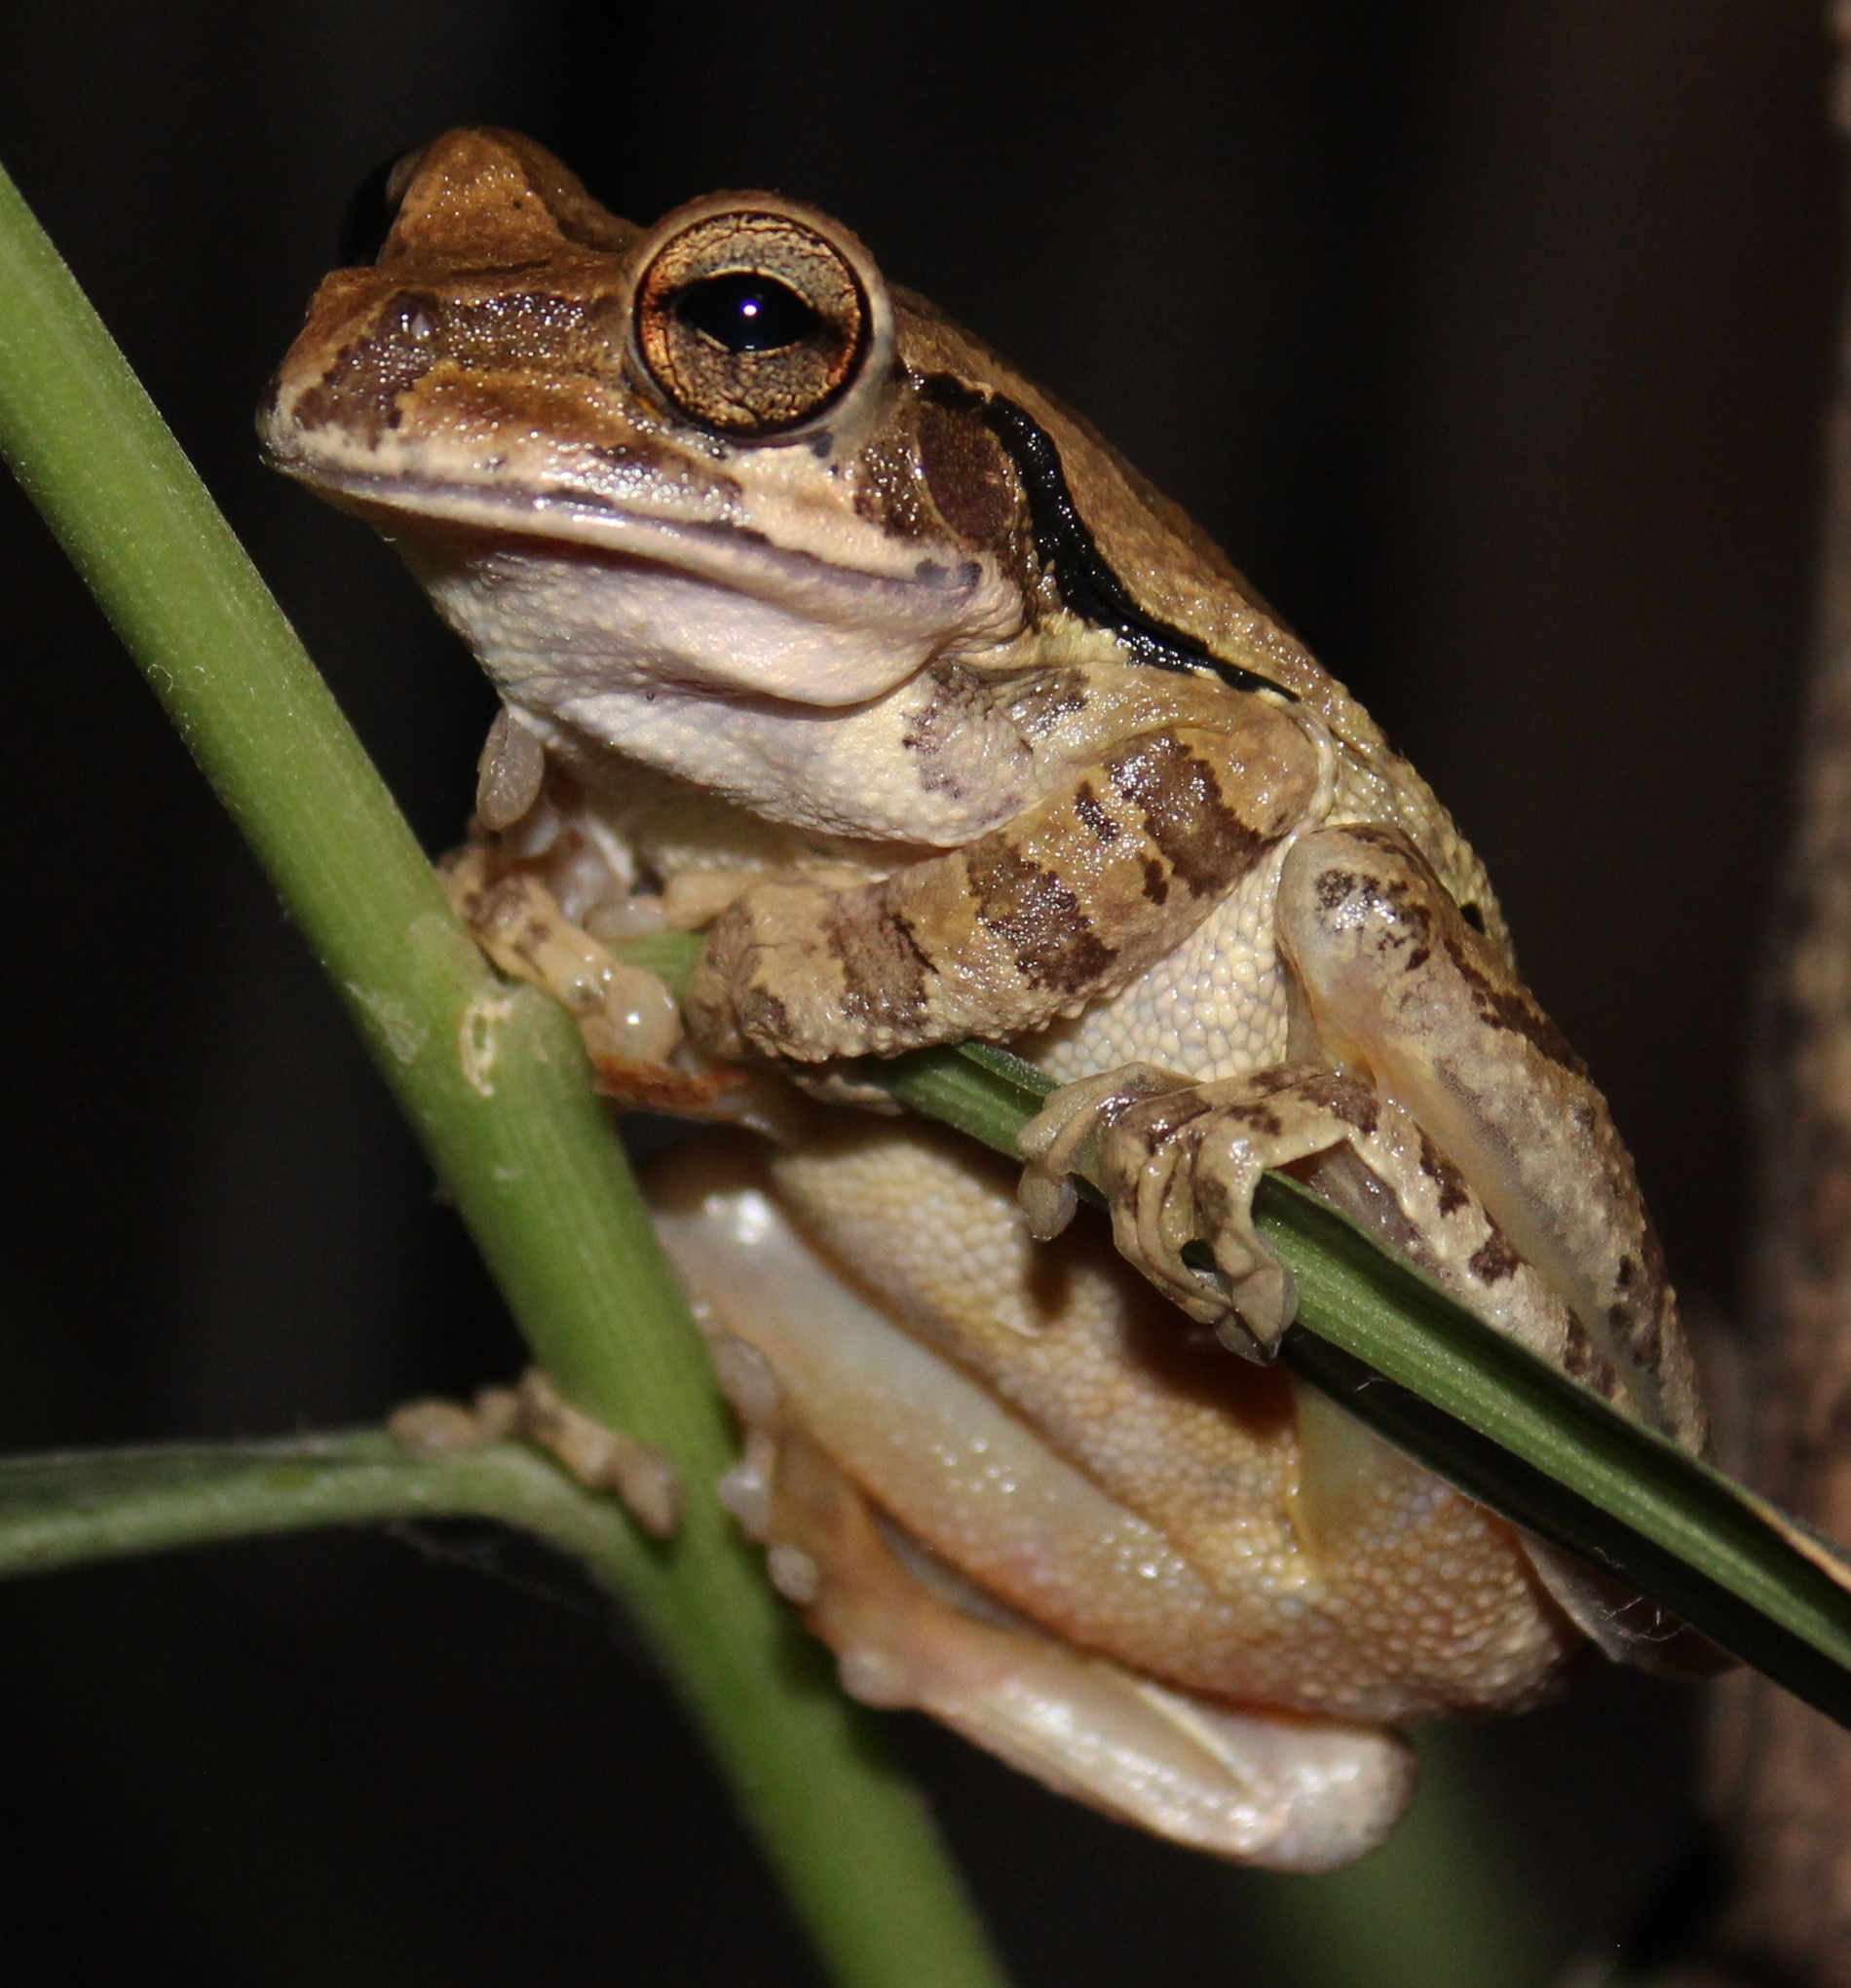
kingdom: Animalia
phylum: Chordata
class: Amphibia
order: Anura
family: Hylidae
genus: Smilisca
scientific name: Smilisca baudinii
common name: Mexican smilisca
